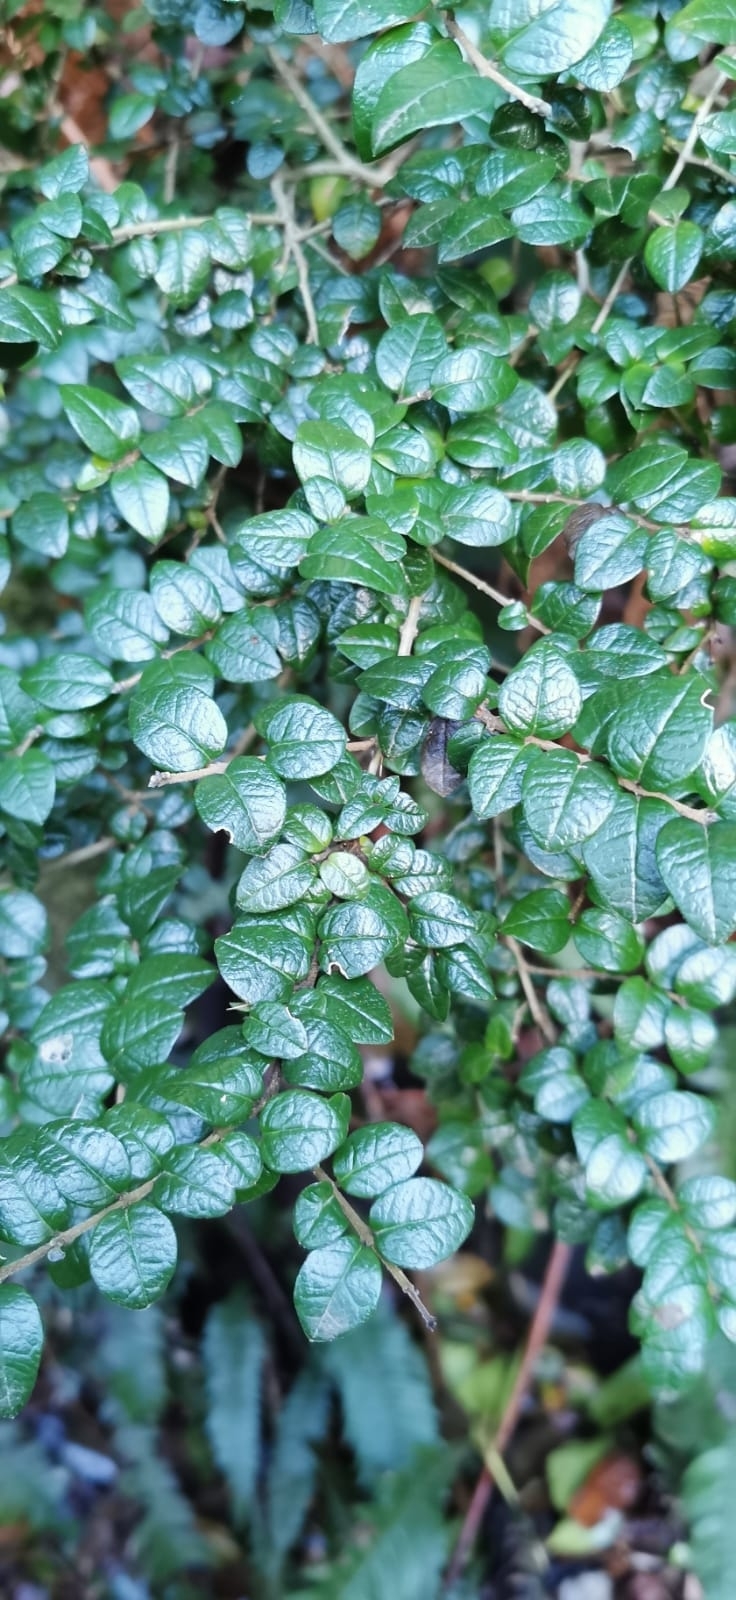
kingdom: Plantae
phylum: Tracheophyta
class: Magnoliopsida
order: Lamiales
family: Verbenaceae
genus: Rhaphithamnus
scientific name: Rhaphithamnus spinosus
